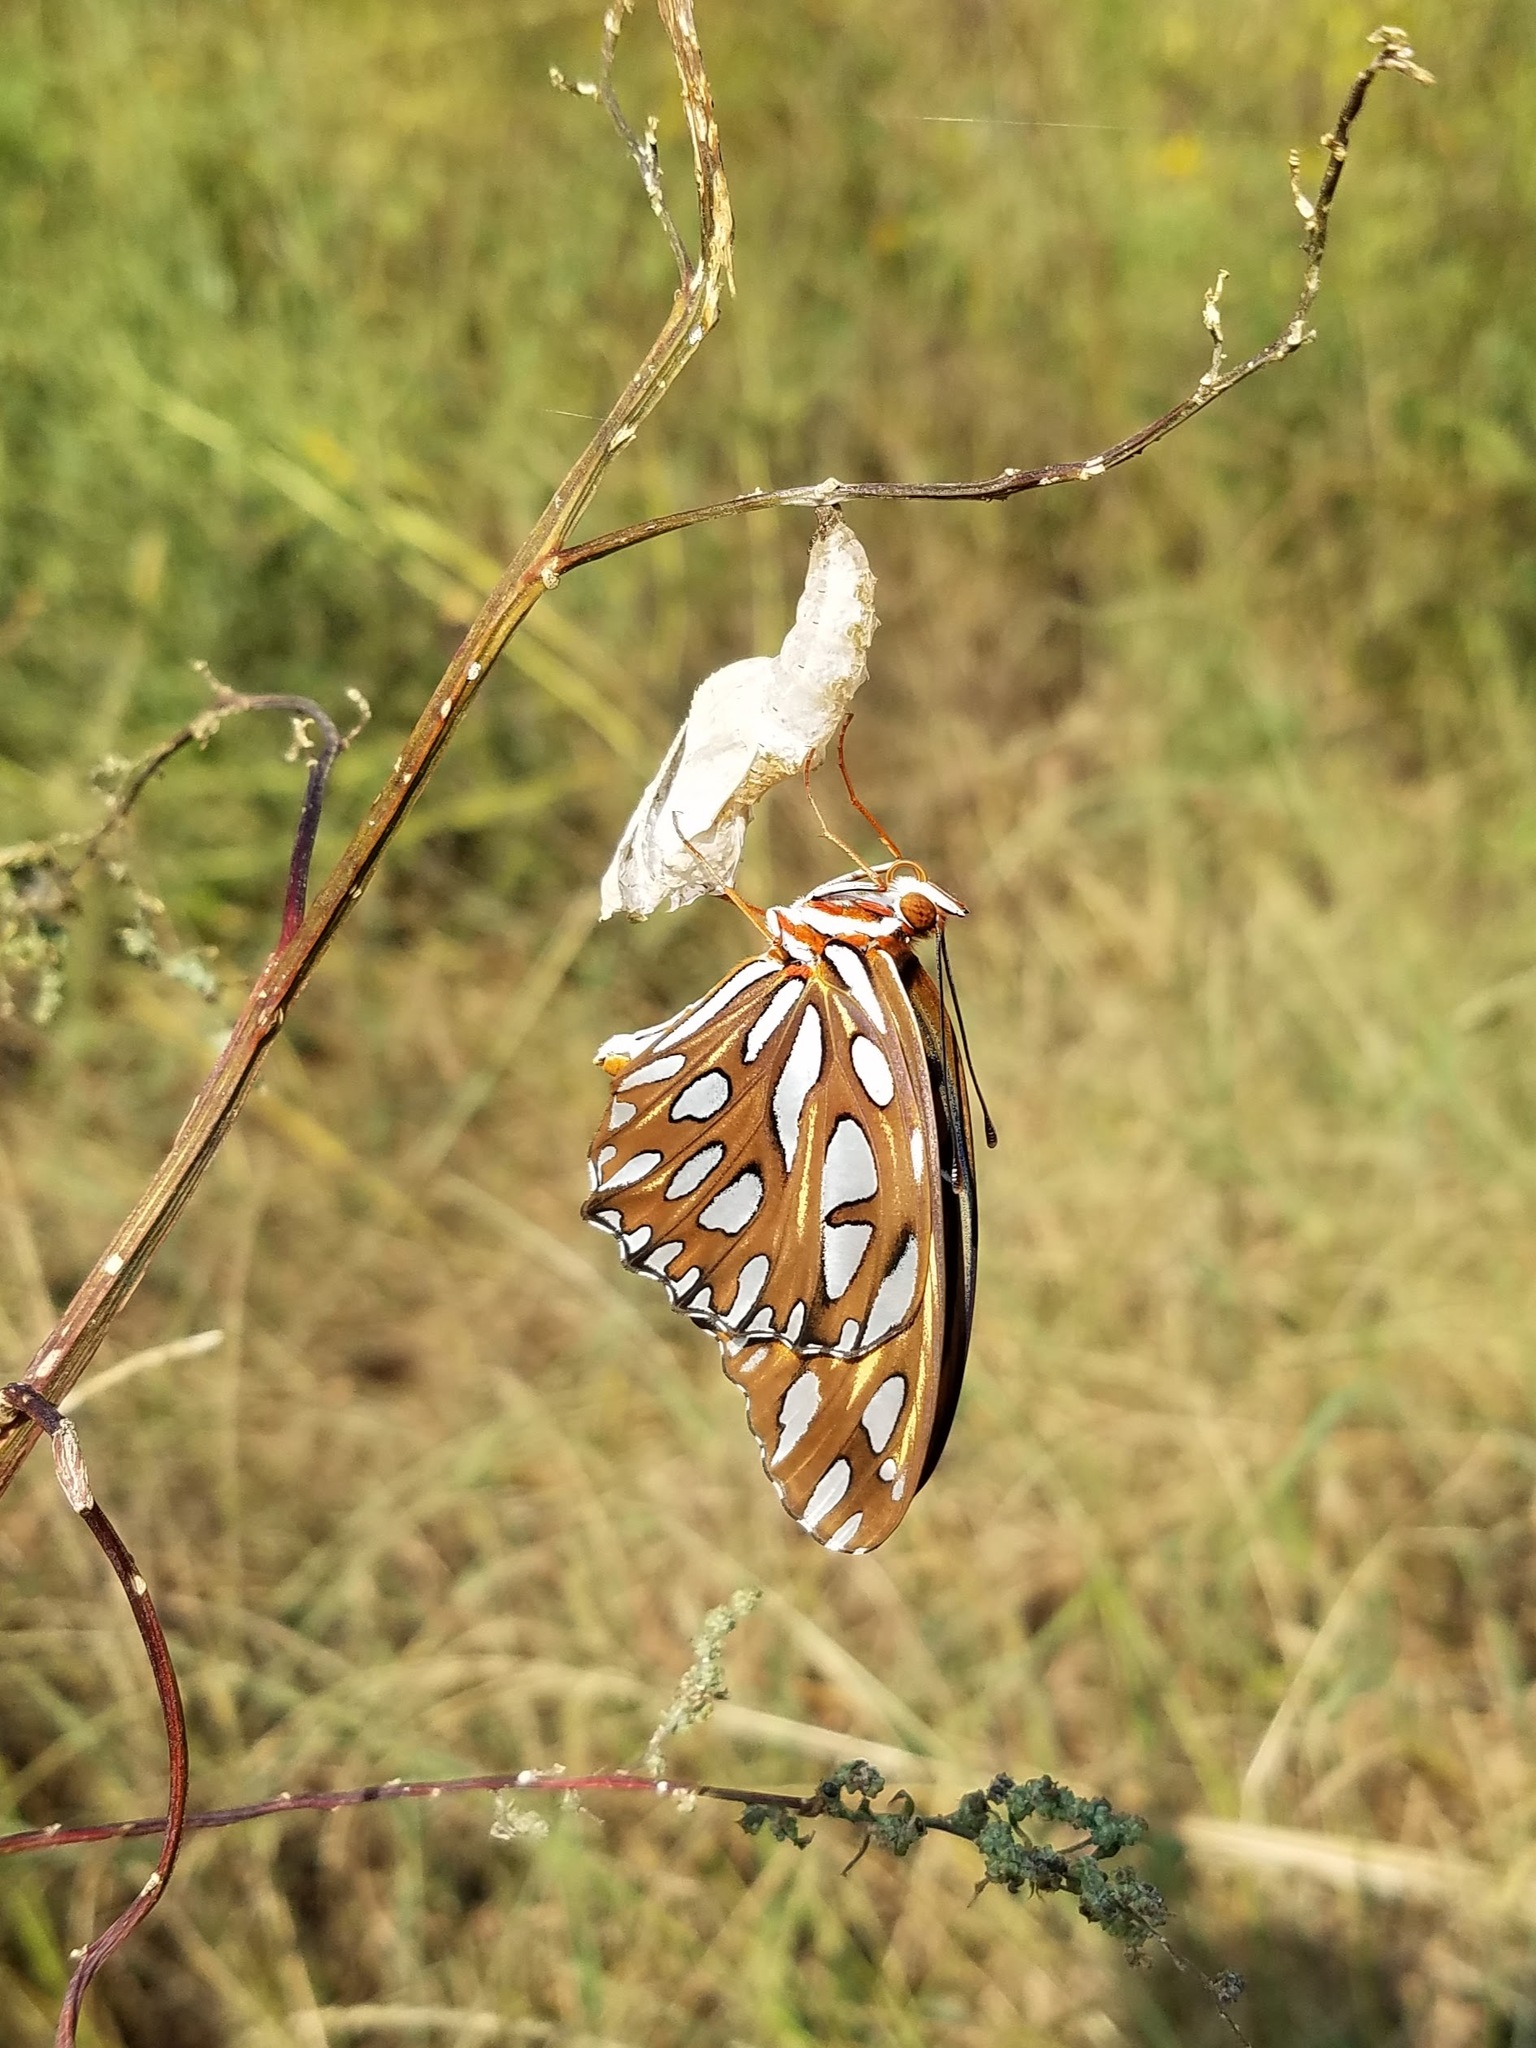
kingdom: Animalia
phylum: Arthropoda
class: Insecta
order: Lepidoptera
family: Nymphalidae
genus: Dione
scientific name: Dione vanillae
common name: Gulf fritillary
